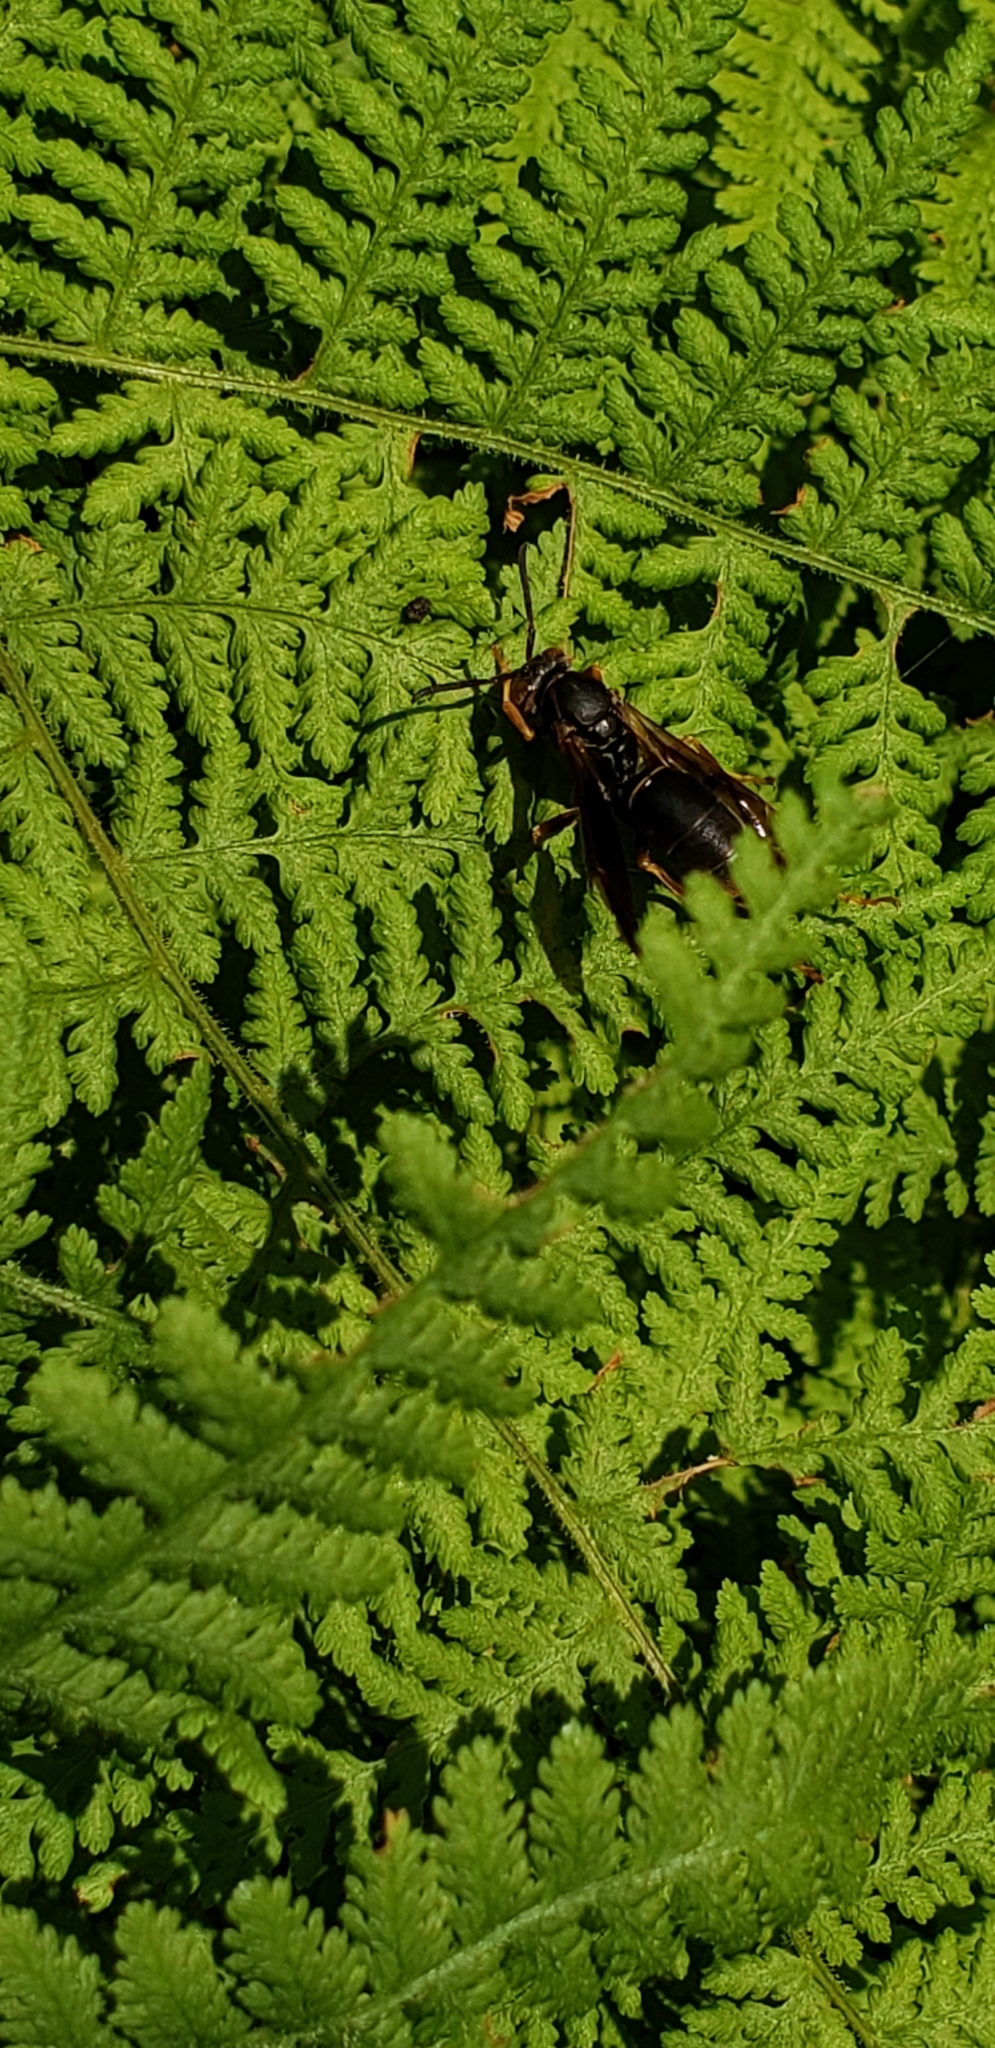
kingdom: Animalia
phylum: Arthropoda
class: Insecta
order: Hymenoptera
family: Eumenidae
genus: Polistes
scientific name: Polistes fuscatus
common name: Dark paper wasp
